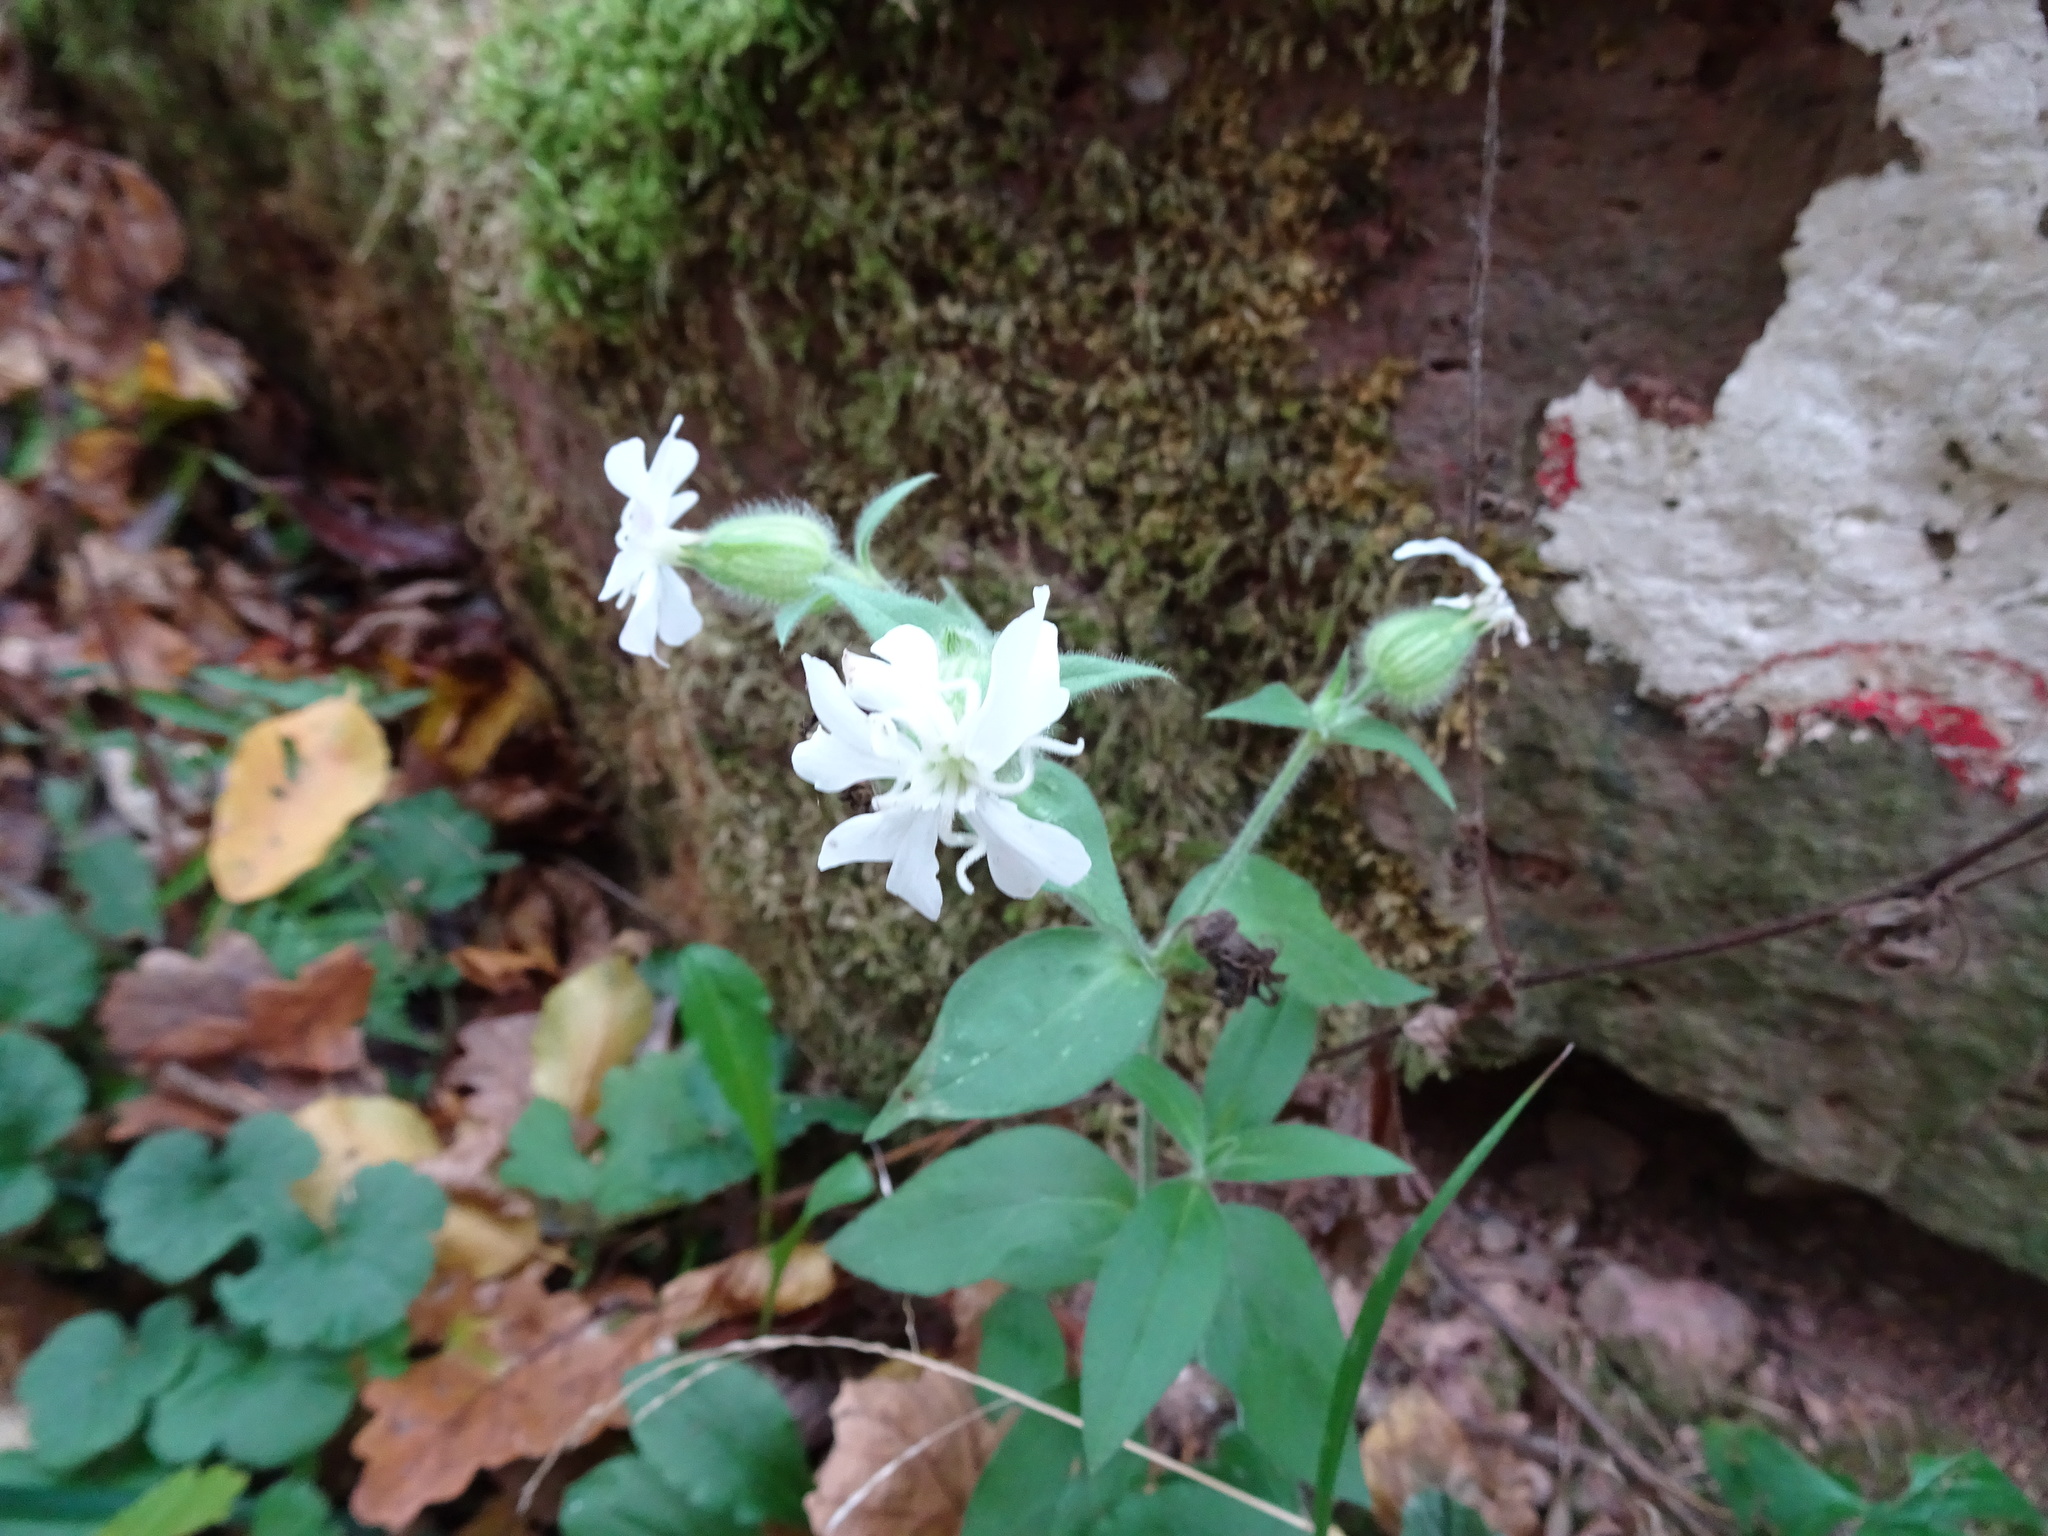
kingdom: Plantae
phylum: Tracheophyta
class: Magnoliopsida
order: Caryophyllales
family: Caryophyllaceae
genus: Silene
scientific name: Silene latifolia
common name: White campion
